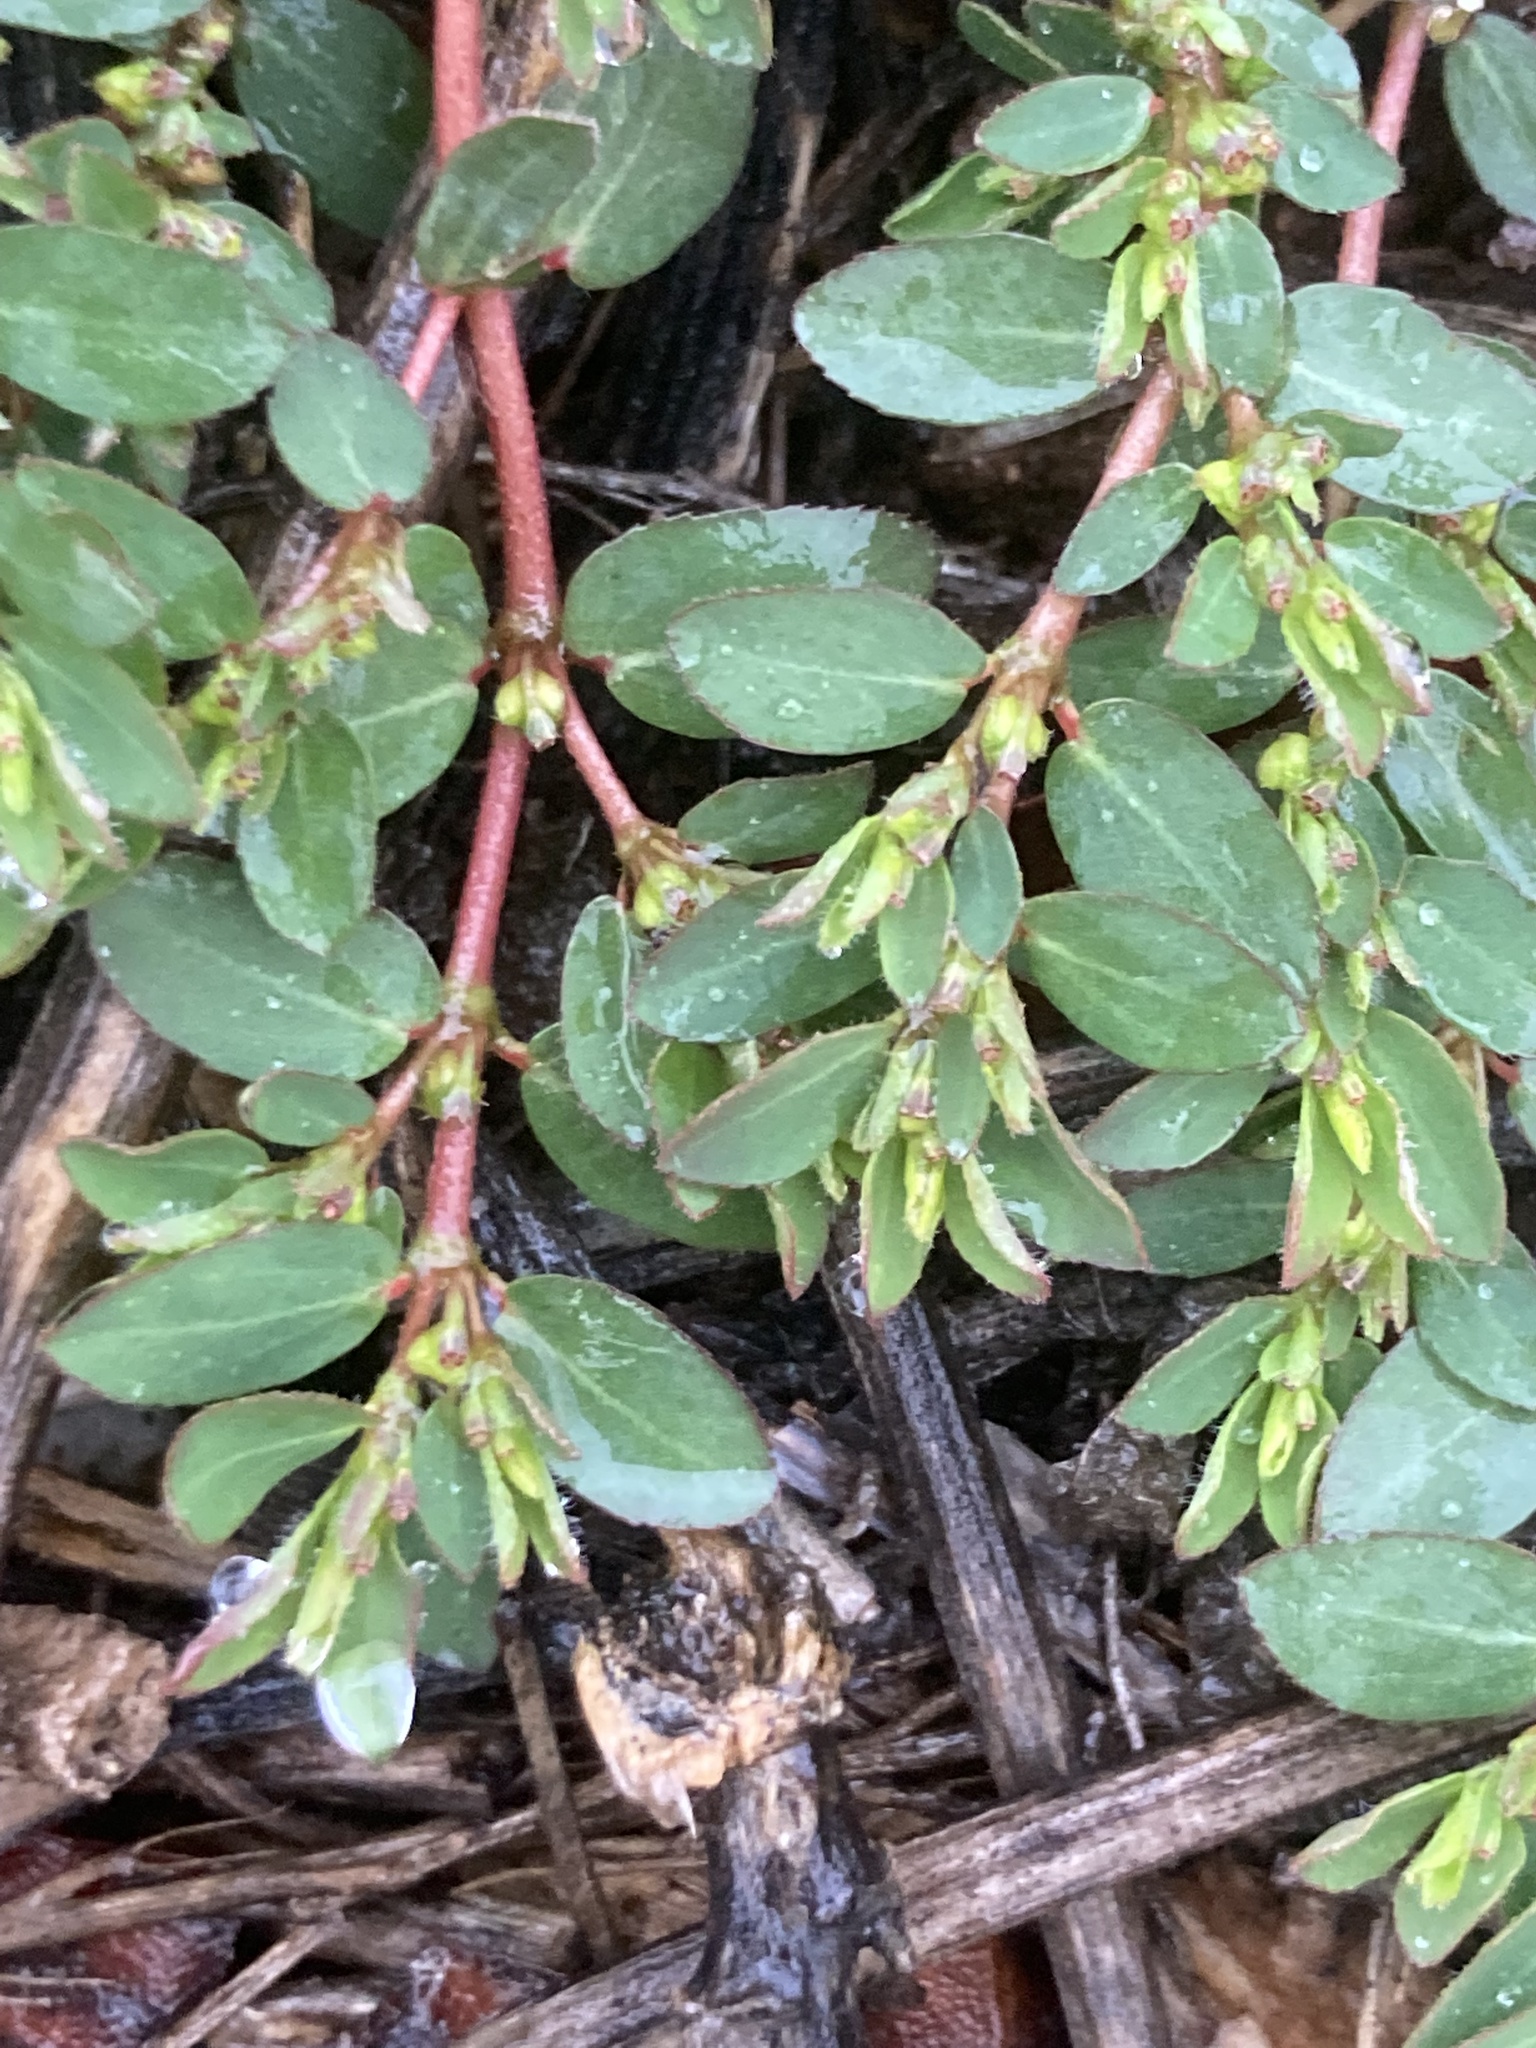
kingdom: Plantae
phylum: Tracheophyta
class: Magnoliopsida
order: Malpighiales
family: Euphorbiaceae
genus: Euphorbia
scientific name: Euphorbia prostrata
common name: Prostrate sandmat
